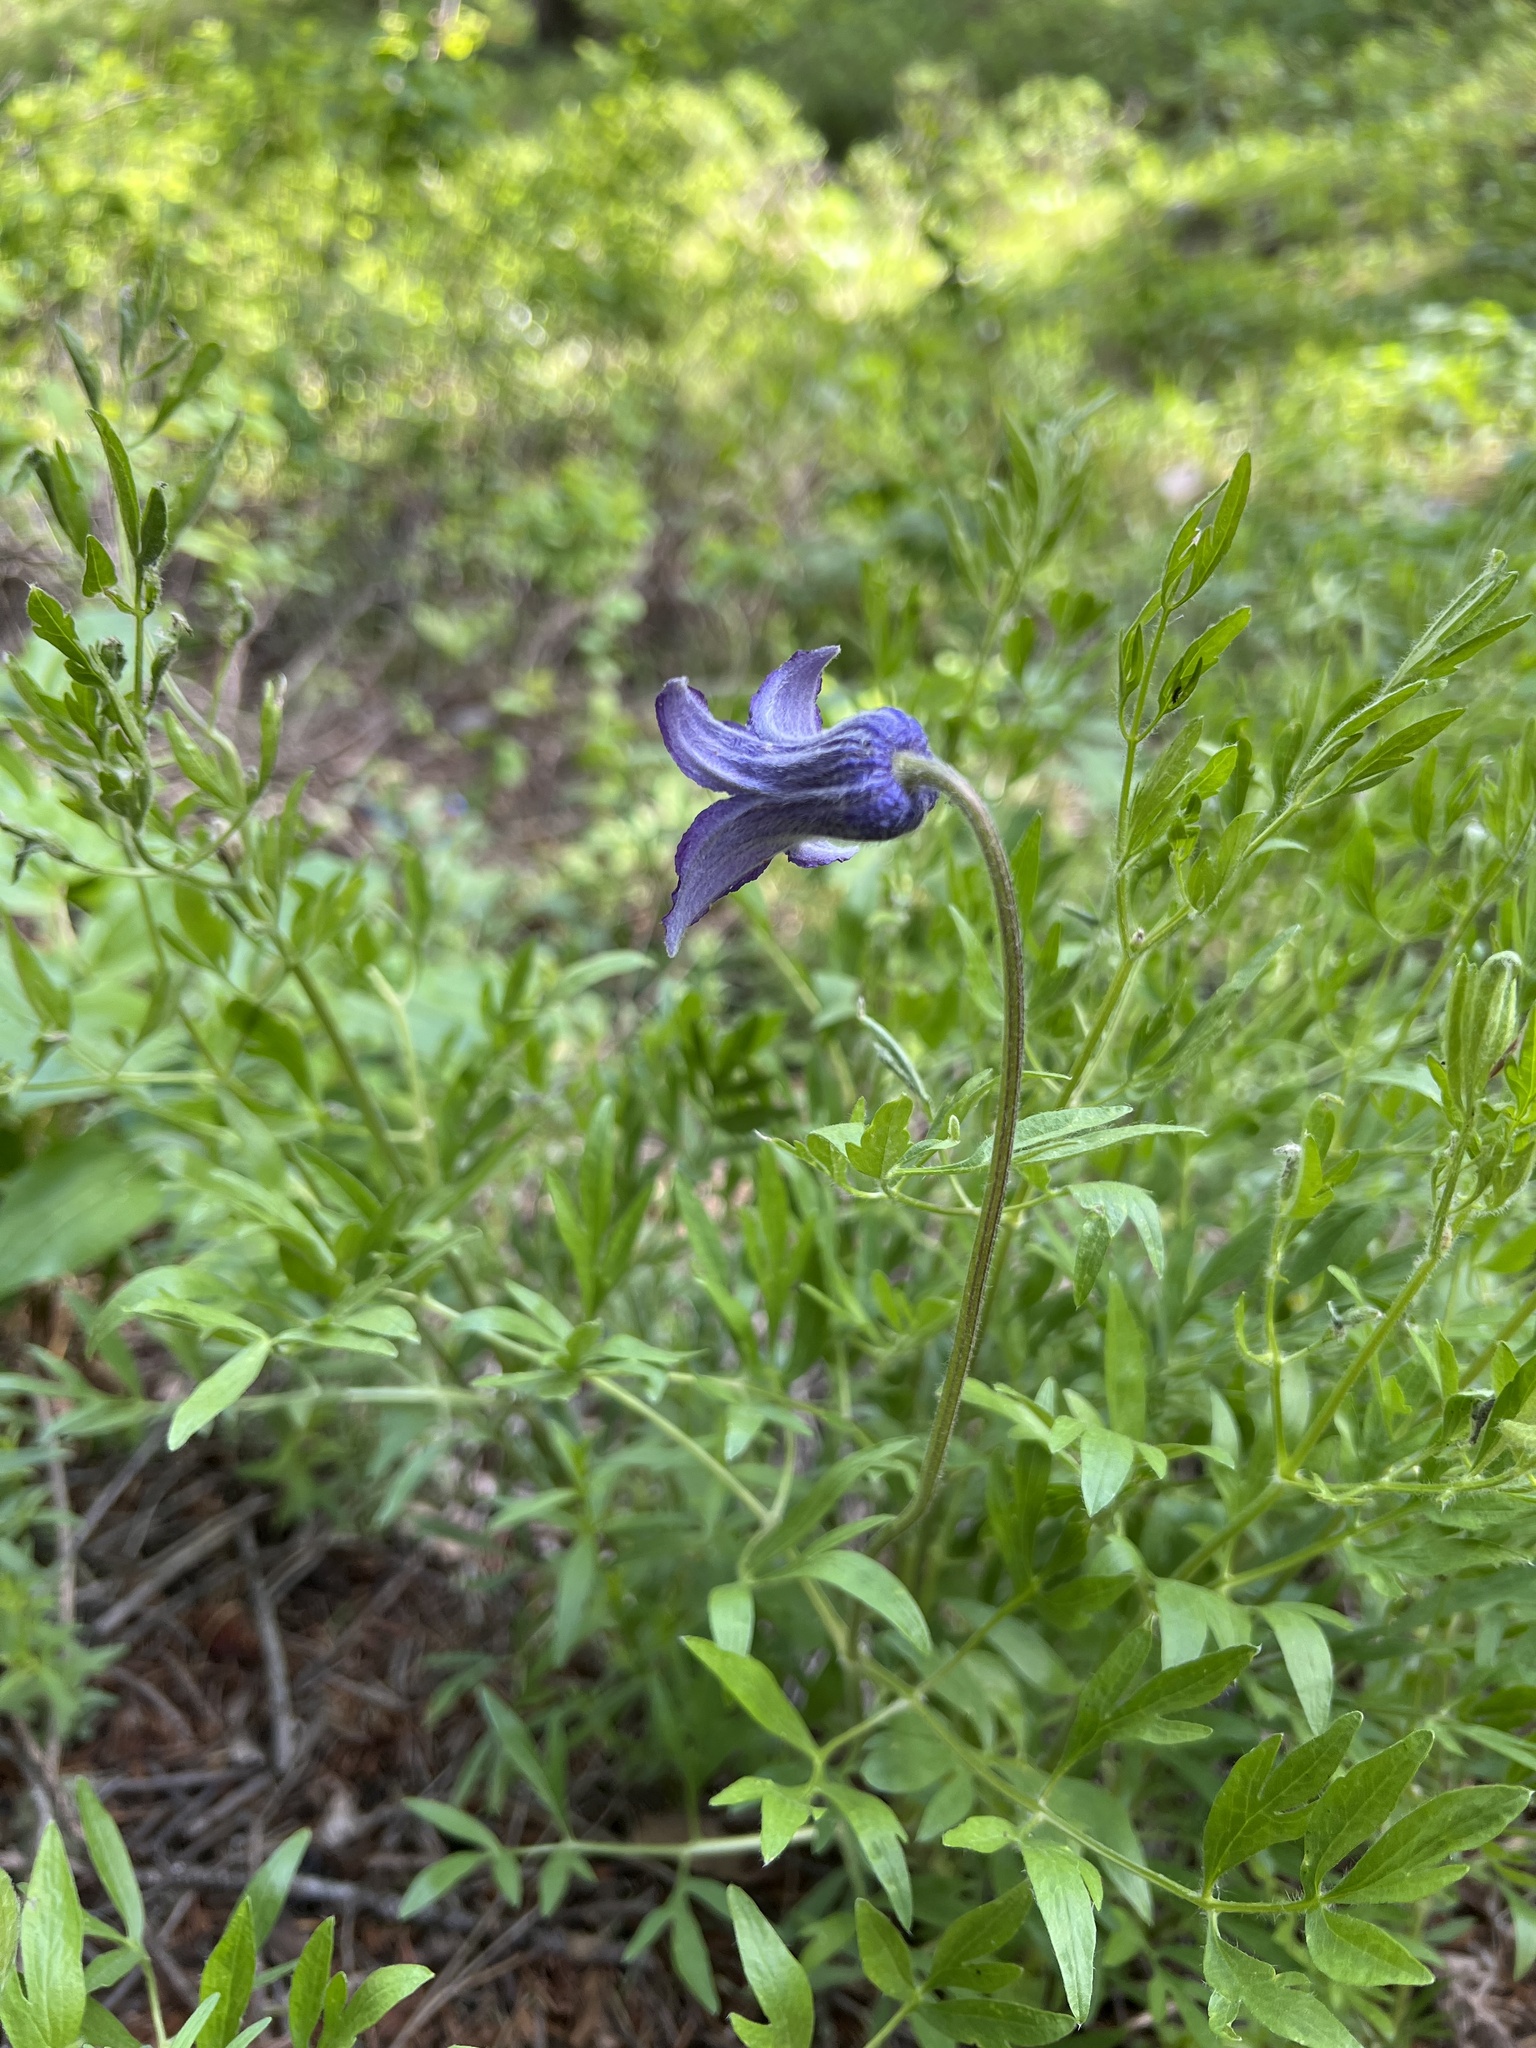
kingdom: Plantae
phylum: Tracheophyta
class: Magnoliopsida
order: Ranunculales
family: Ranunculaceae
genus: Clematis
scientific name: Clematis hirsutissima
